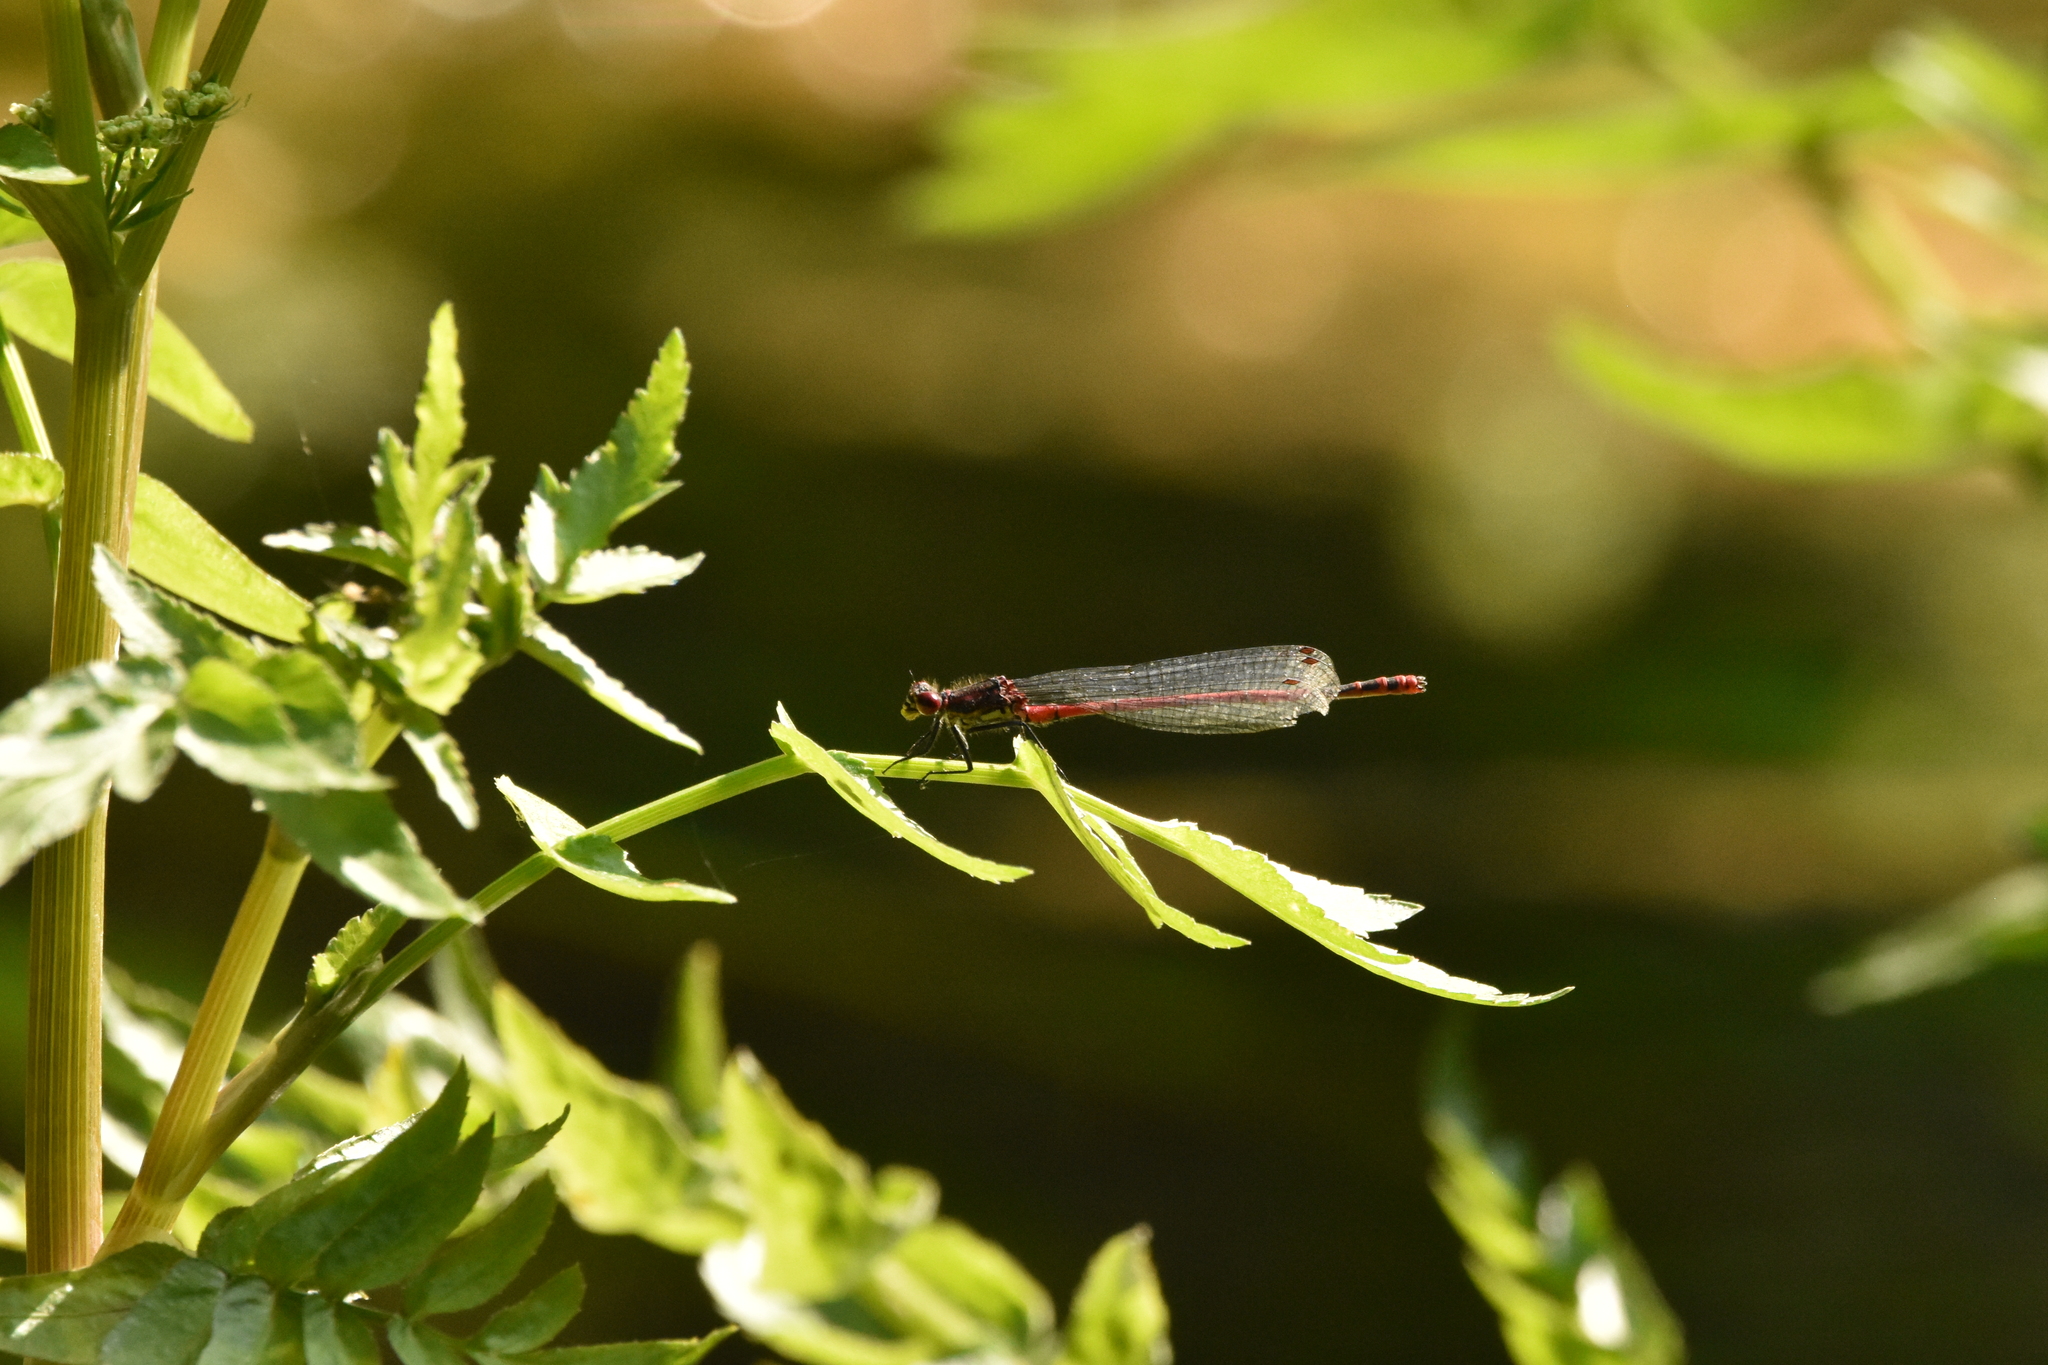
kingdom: Animalia
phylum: Arthropoda
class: Insecta
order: Odonata
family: Coenagrionidae
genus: Pyrrhosoma
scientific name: Pyrrhosoma nymphula
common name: Large red damsel
